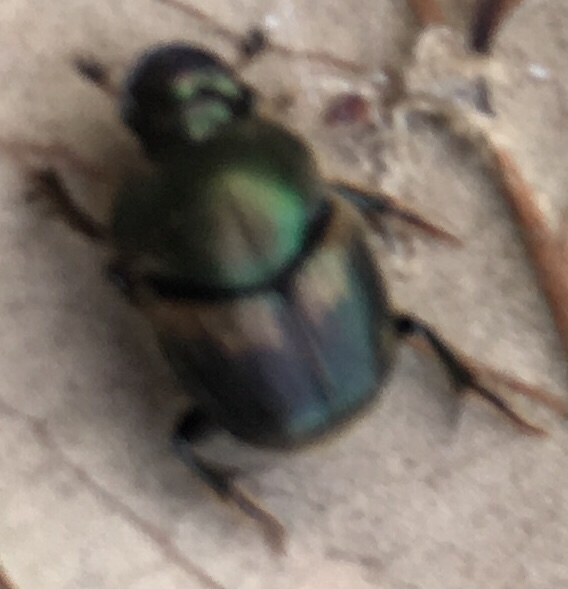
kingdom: Animalia
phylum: Arthropoda
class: Insecta
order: Coleoptera
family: Scarabaeidae
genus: Onthophagus
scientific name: Onthophagus concinnus
